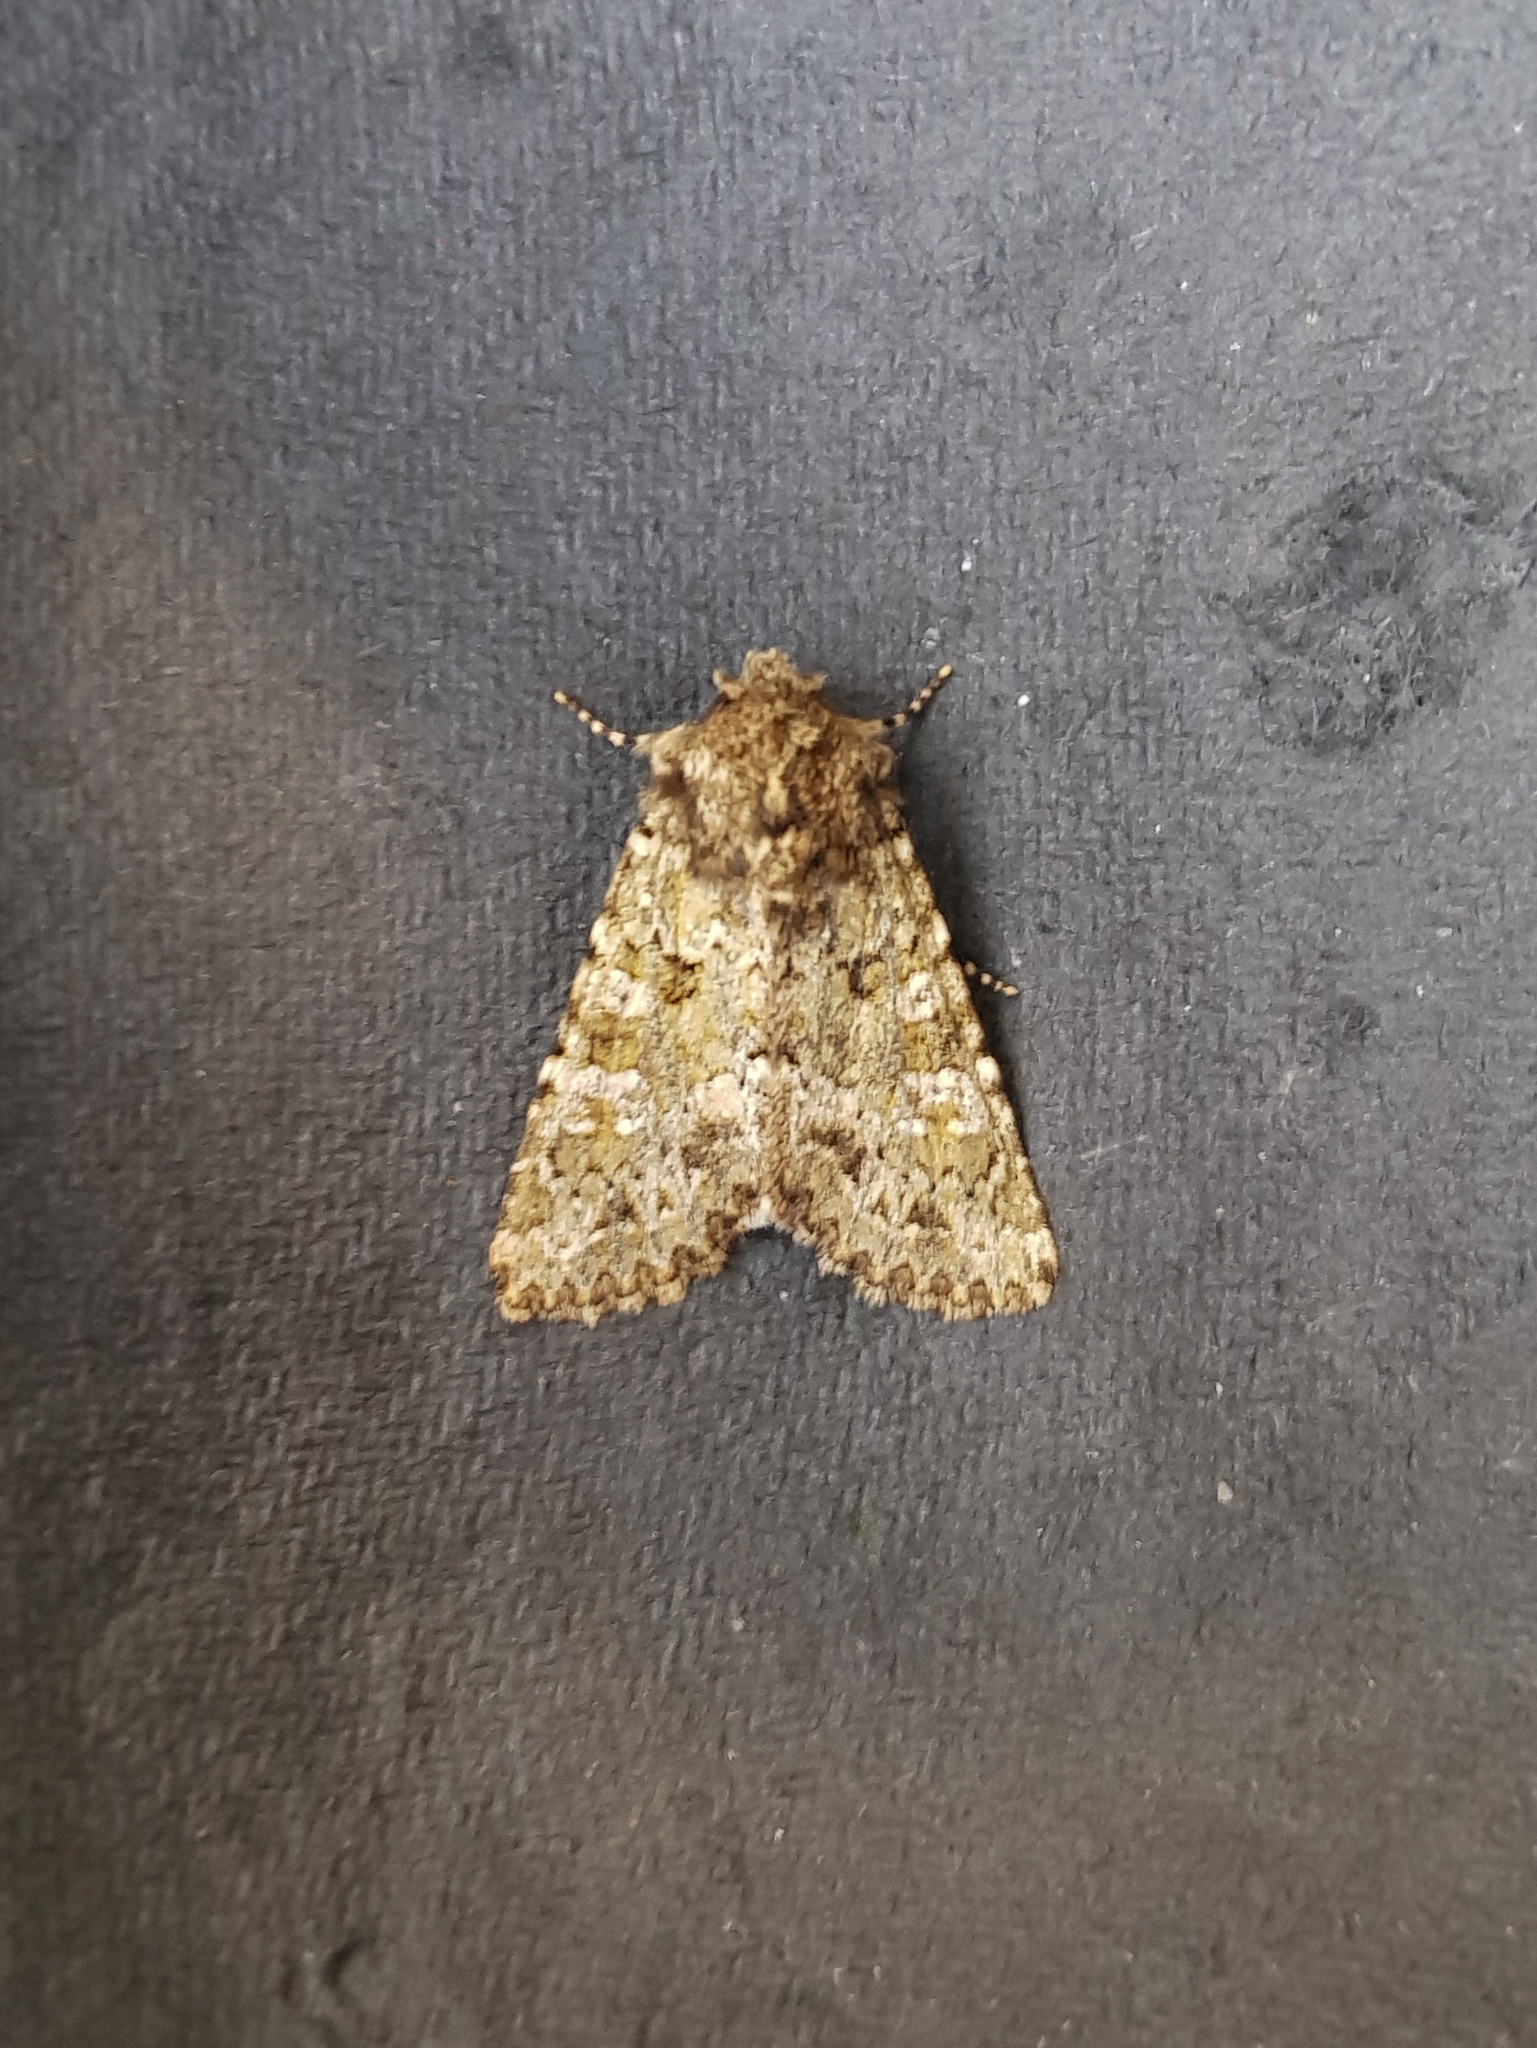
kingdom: Animalia
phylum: Arthropoda
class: Insecta
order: Lepidoptera
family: Noctuidae
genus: Polymixis
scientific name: Polymixis lichenea
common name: Feathered ranunculus
